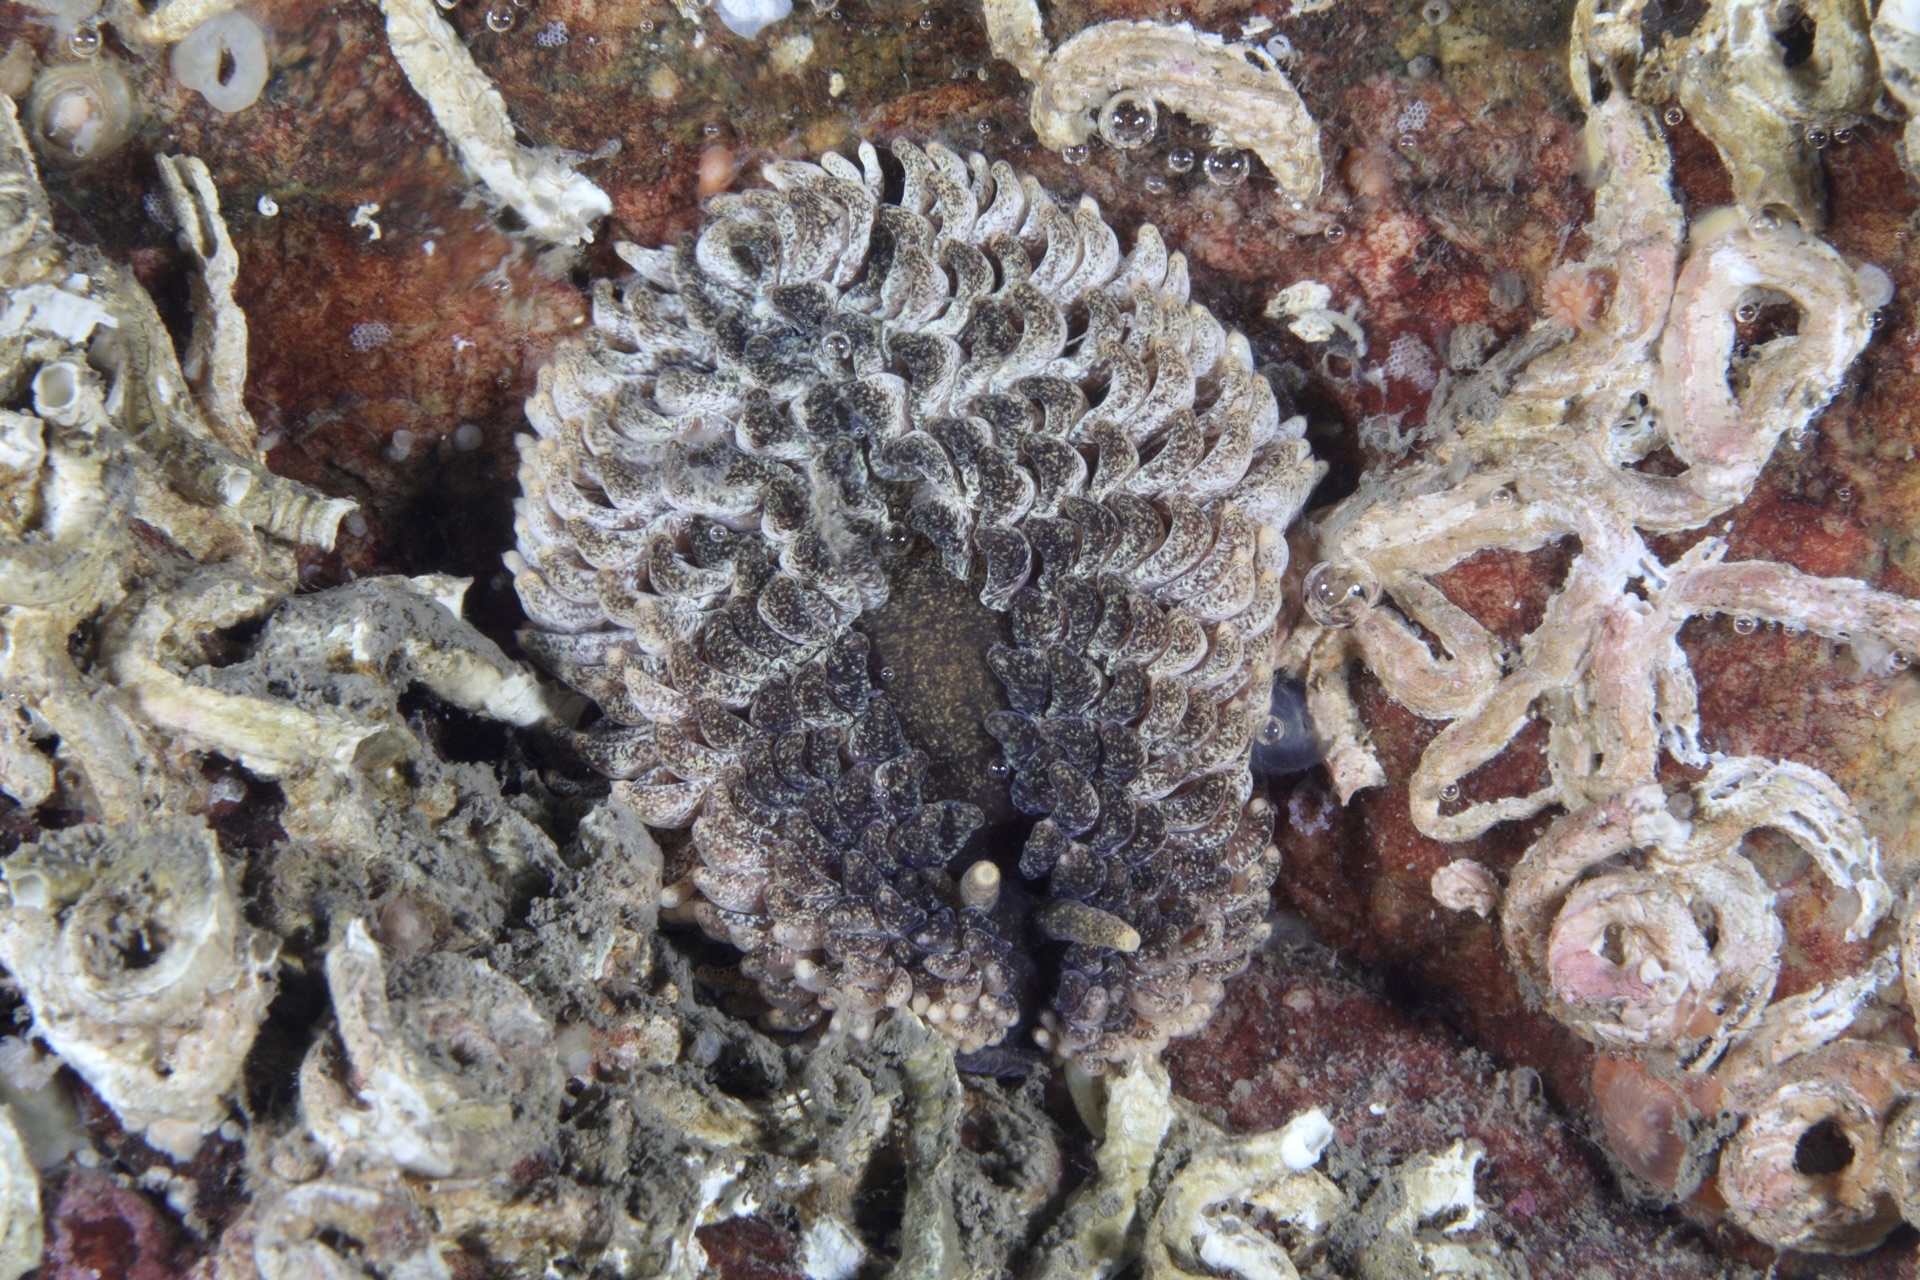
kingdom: Animalia
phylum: Mollusca
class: Gastropoda
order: Nudibranchia
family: Aeolidiidae
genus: Aeolidia
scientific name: Aeolidia papillosa
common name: Common grey sea slug
